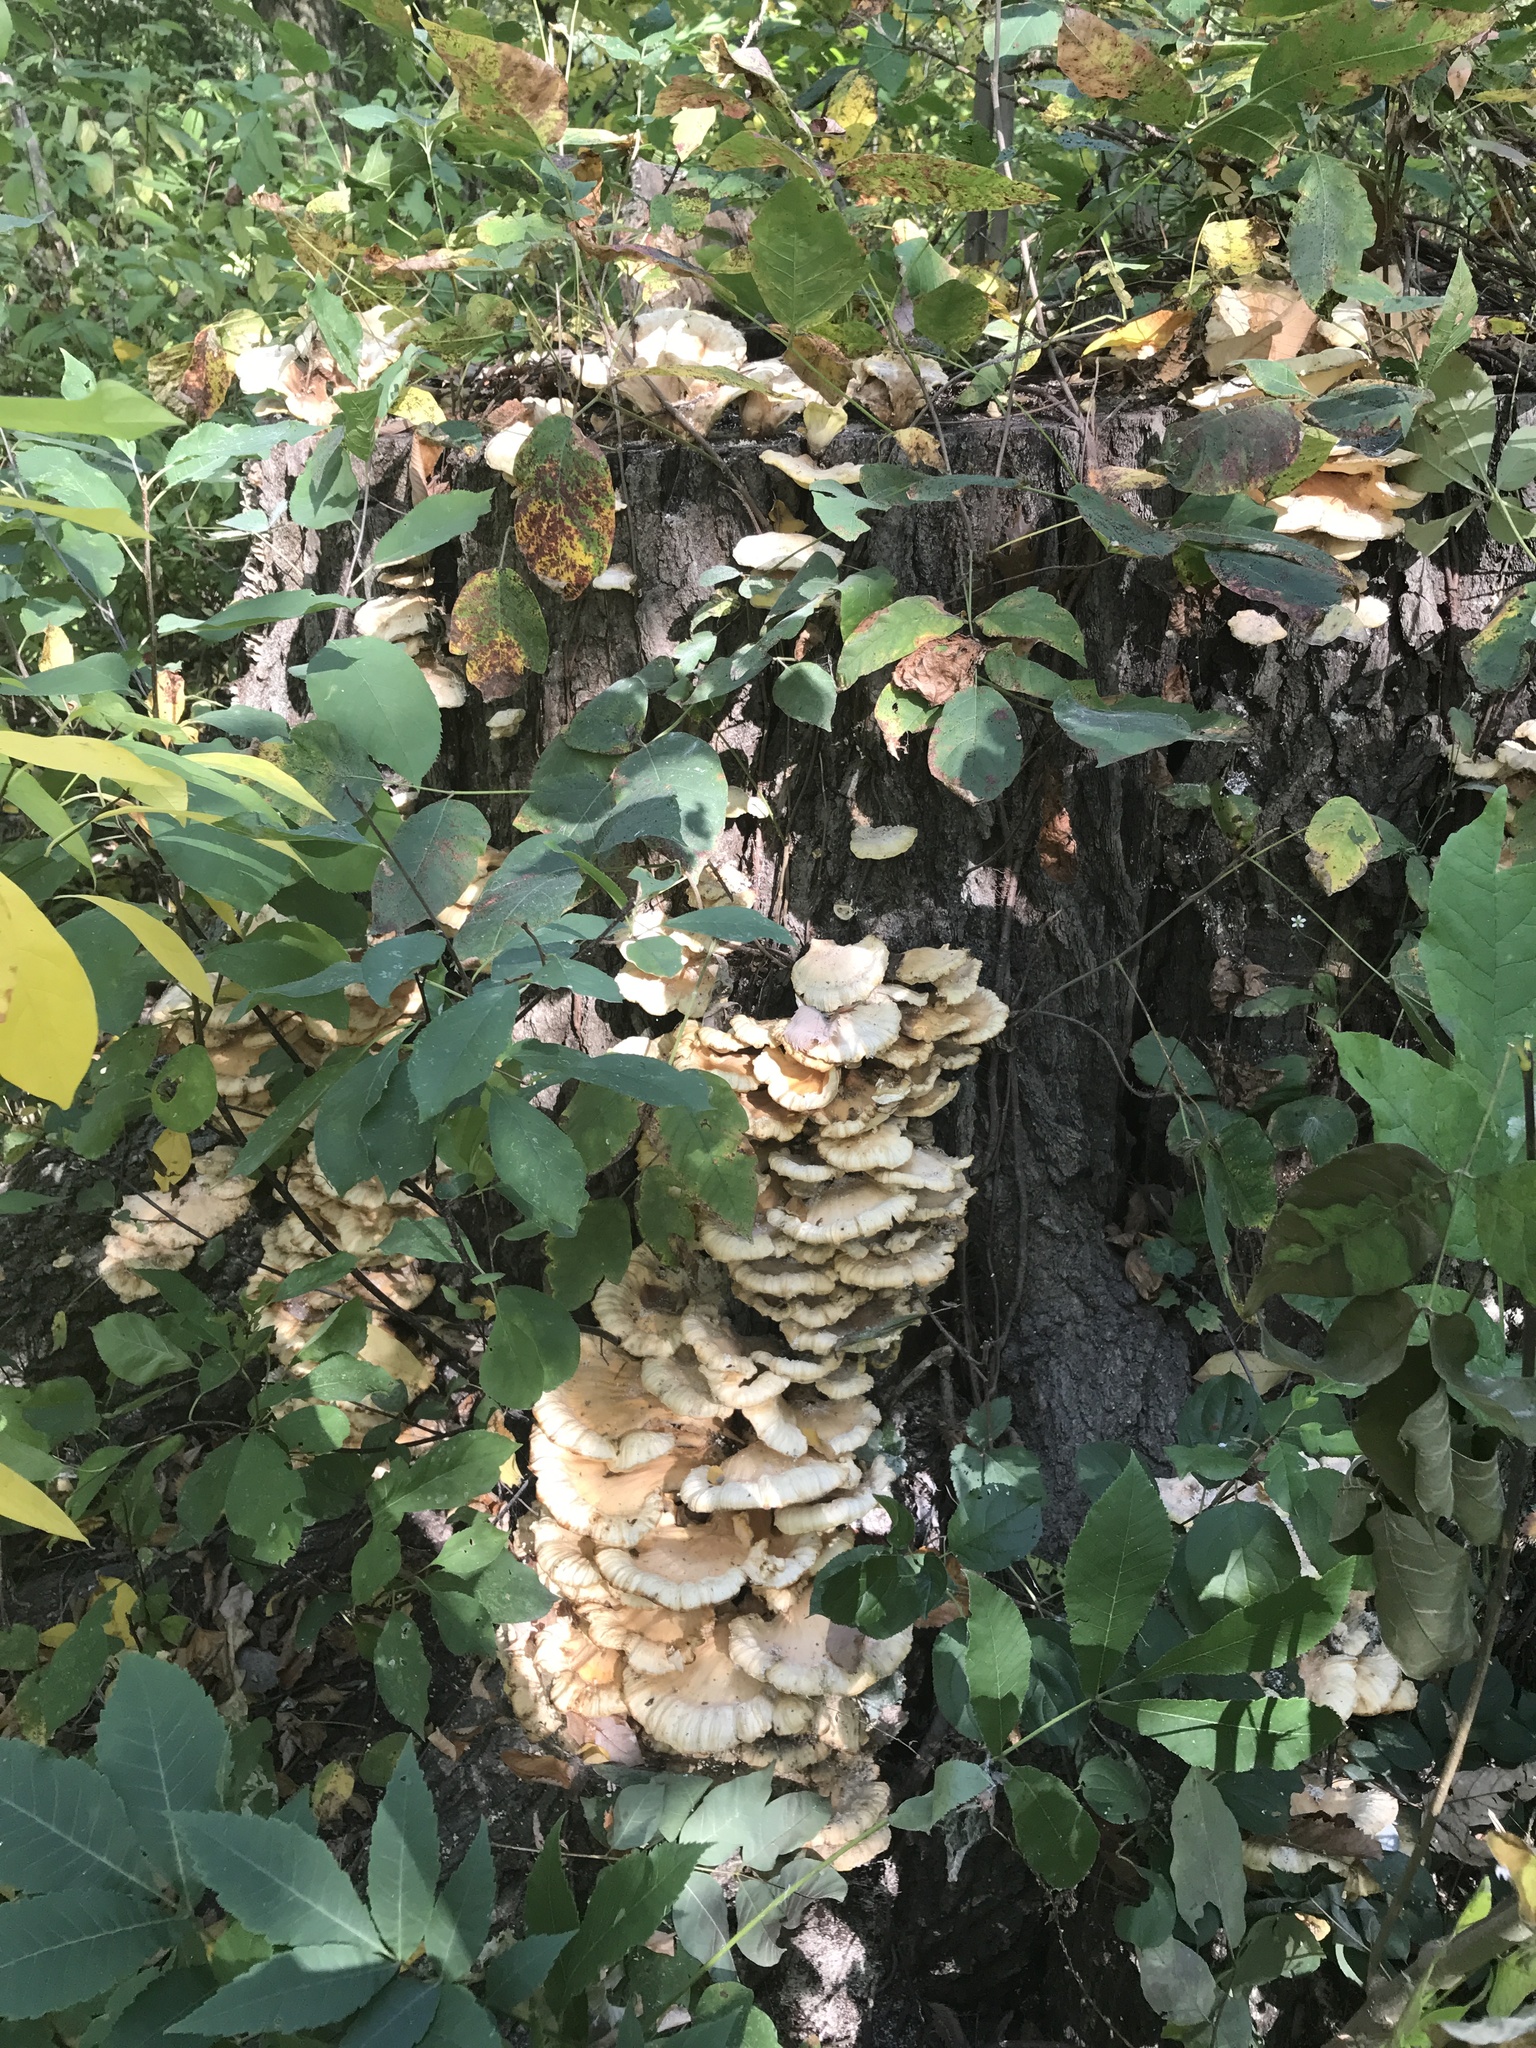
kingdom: Fungi
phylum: Basidiomycota
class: Agaricomycetes
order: Polyporales
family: Laetiporaceae
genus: Laetiporus
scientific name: Laetiporus sulphureus
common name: Chicken of the woods
